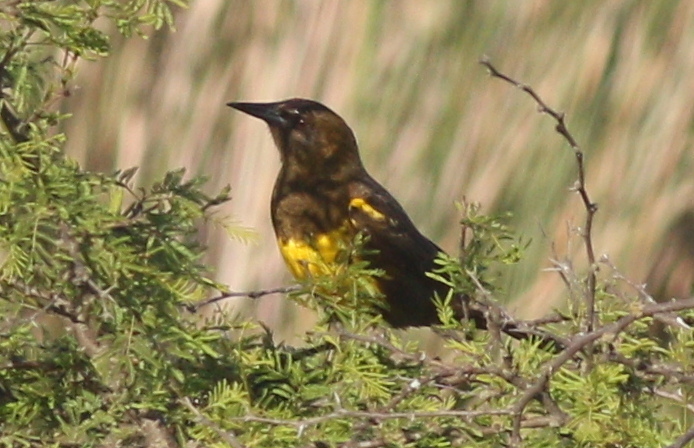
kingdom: Animalia
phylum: Chordata
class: Aves
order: Passeriformes
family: Icteridae
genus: Pseudoleistes
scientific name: Pseudoleistes virescens
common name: Brown-and-yellow marshbird
